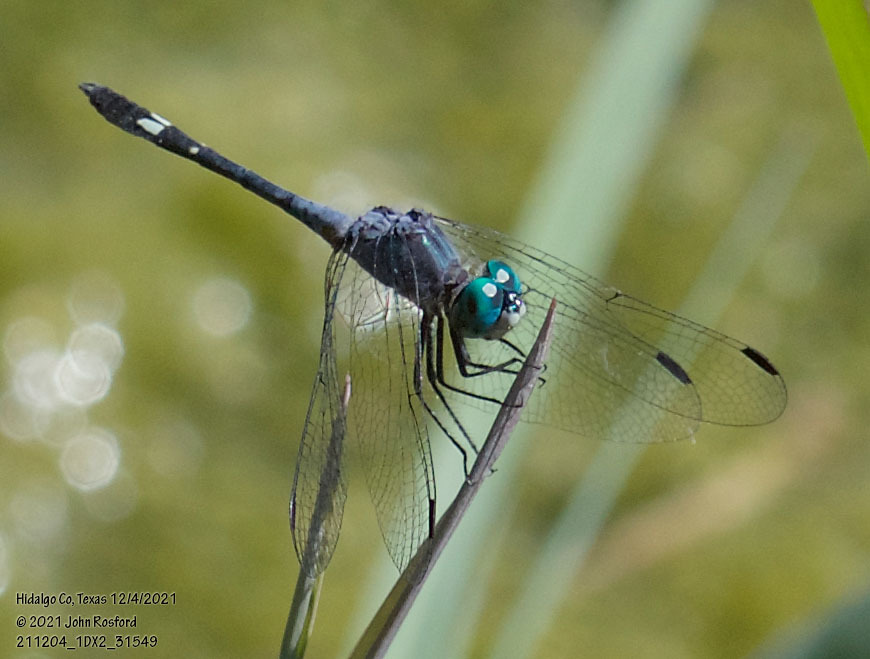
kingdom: Animalia
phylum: Arthropoda
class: Insecta
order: Odonata
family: Libellulidae
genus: Micrathyria
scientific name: Micrathyria aequalis
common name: Spot-tailed dasher
